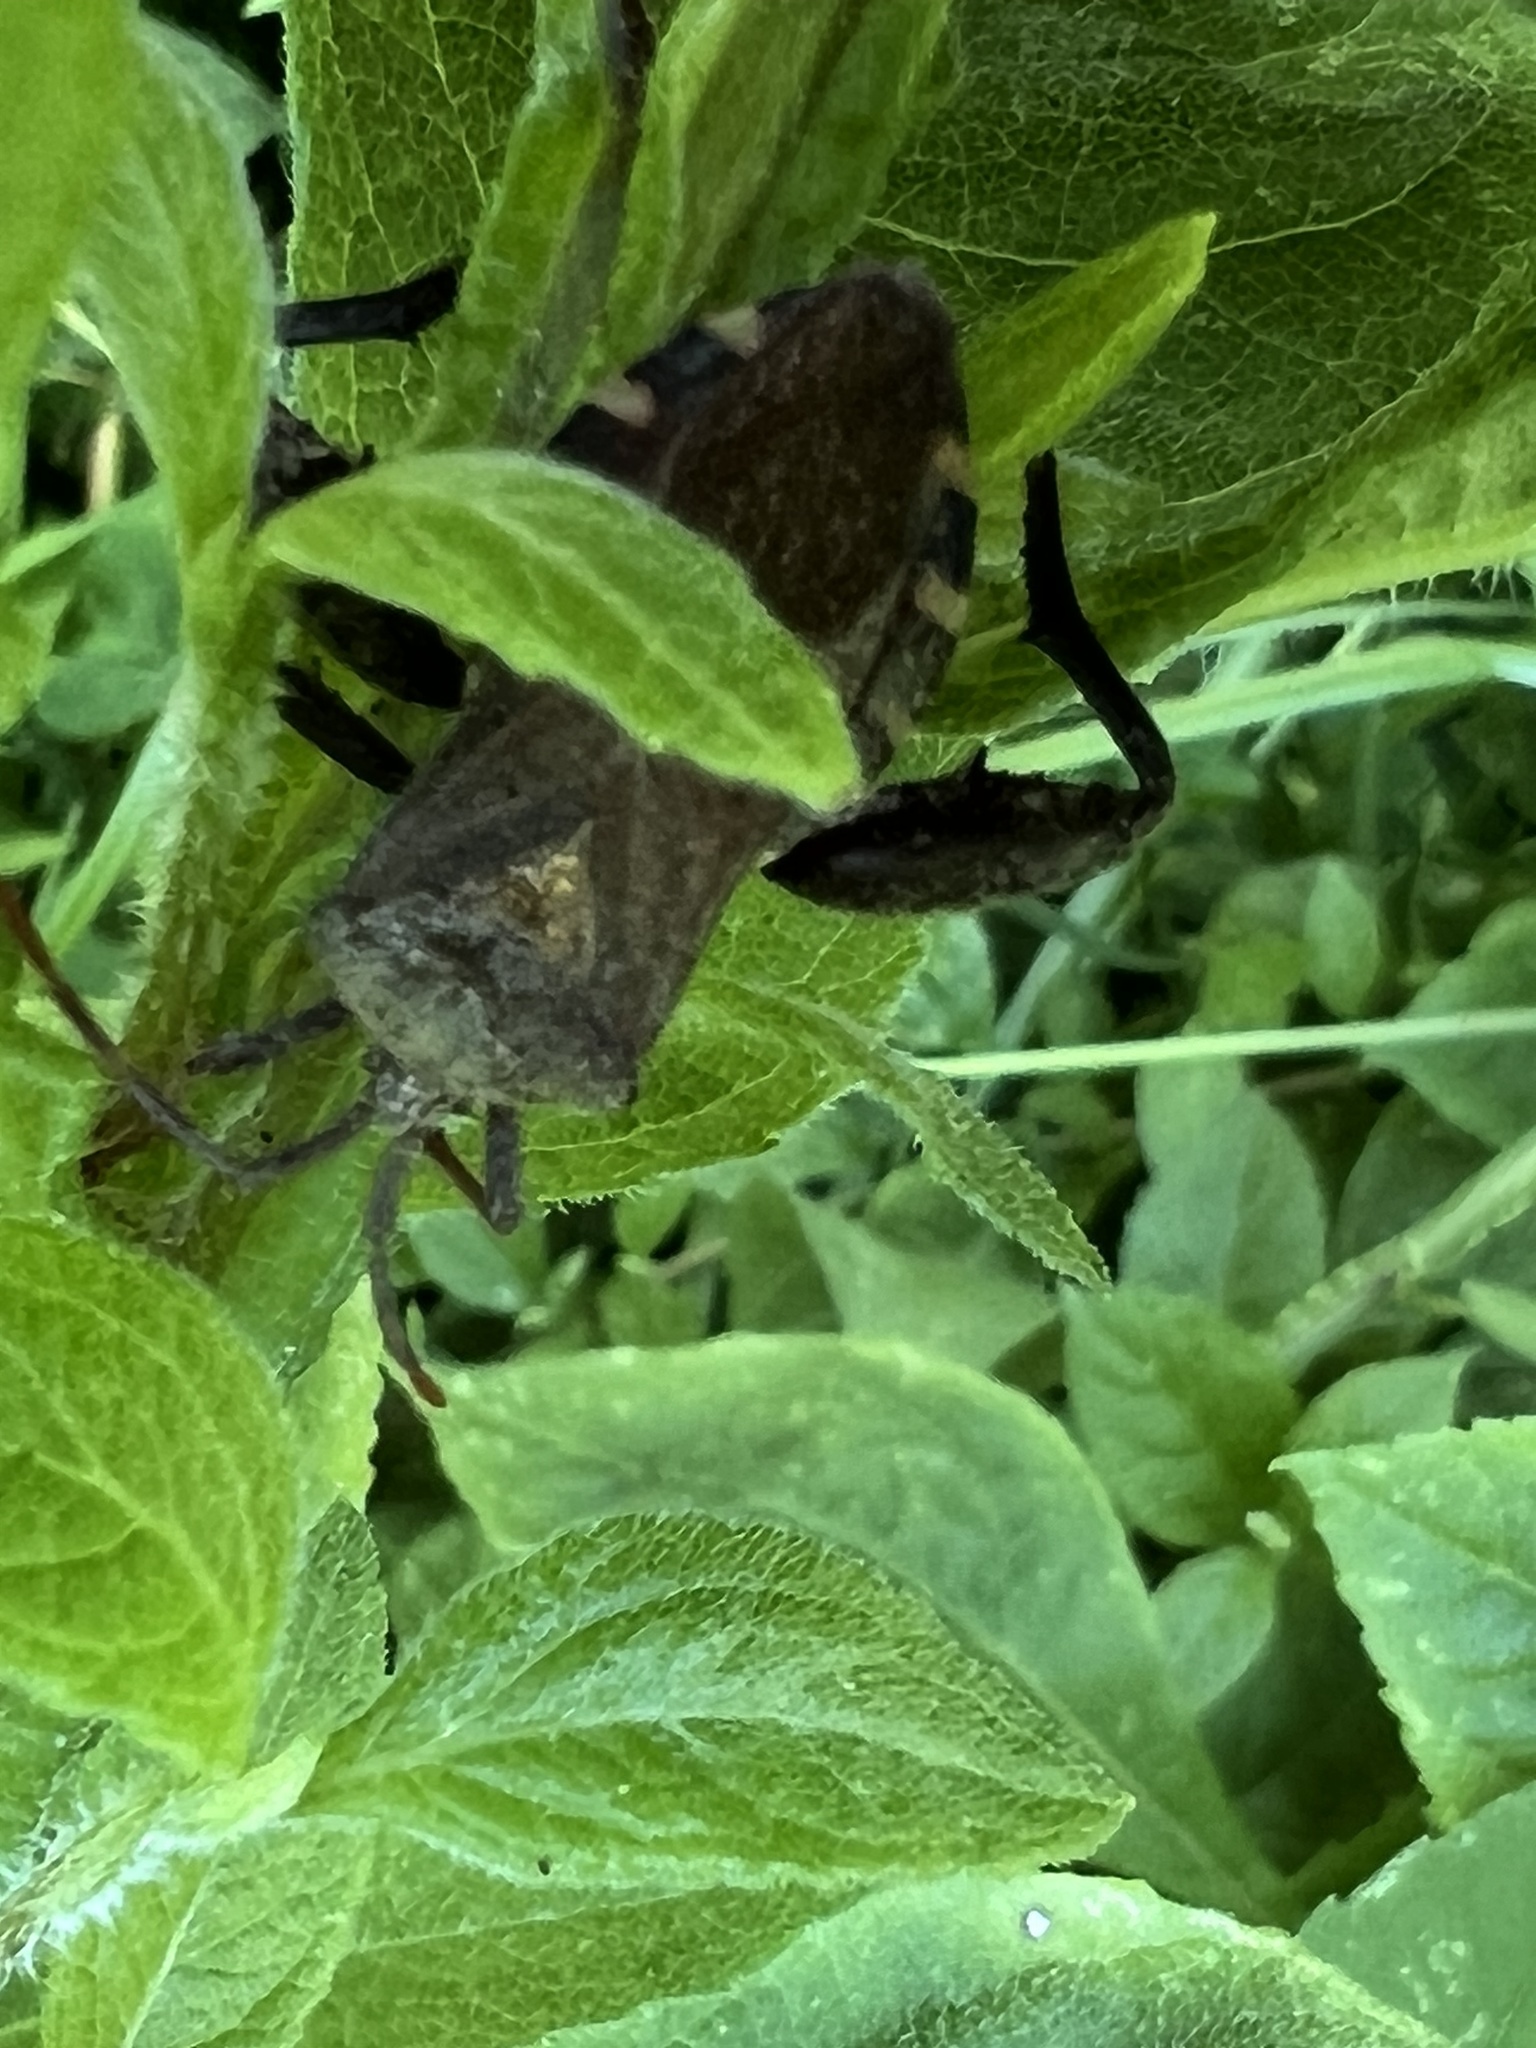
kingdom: Animalia
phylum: Arthropoda
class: Insecta
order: Hemiptera
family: Coreidae
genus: Piezogaster
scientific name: Piezogaster calcarator
